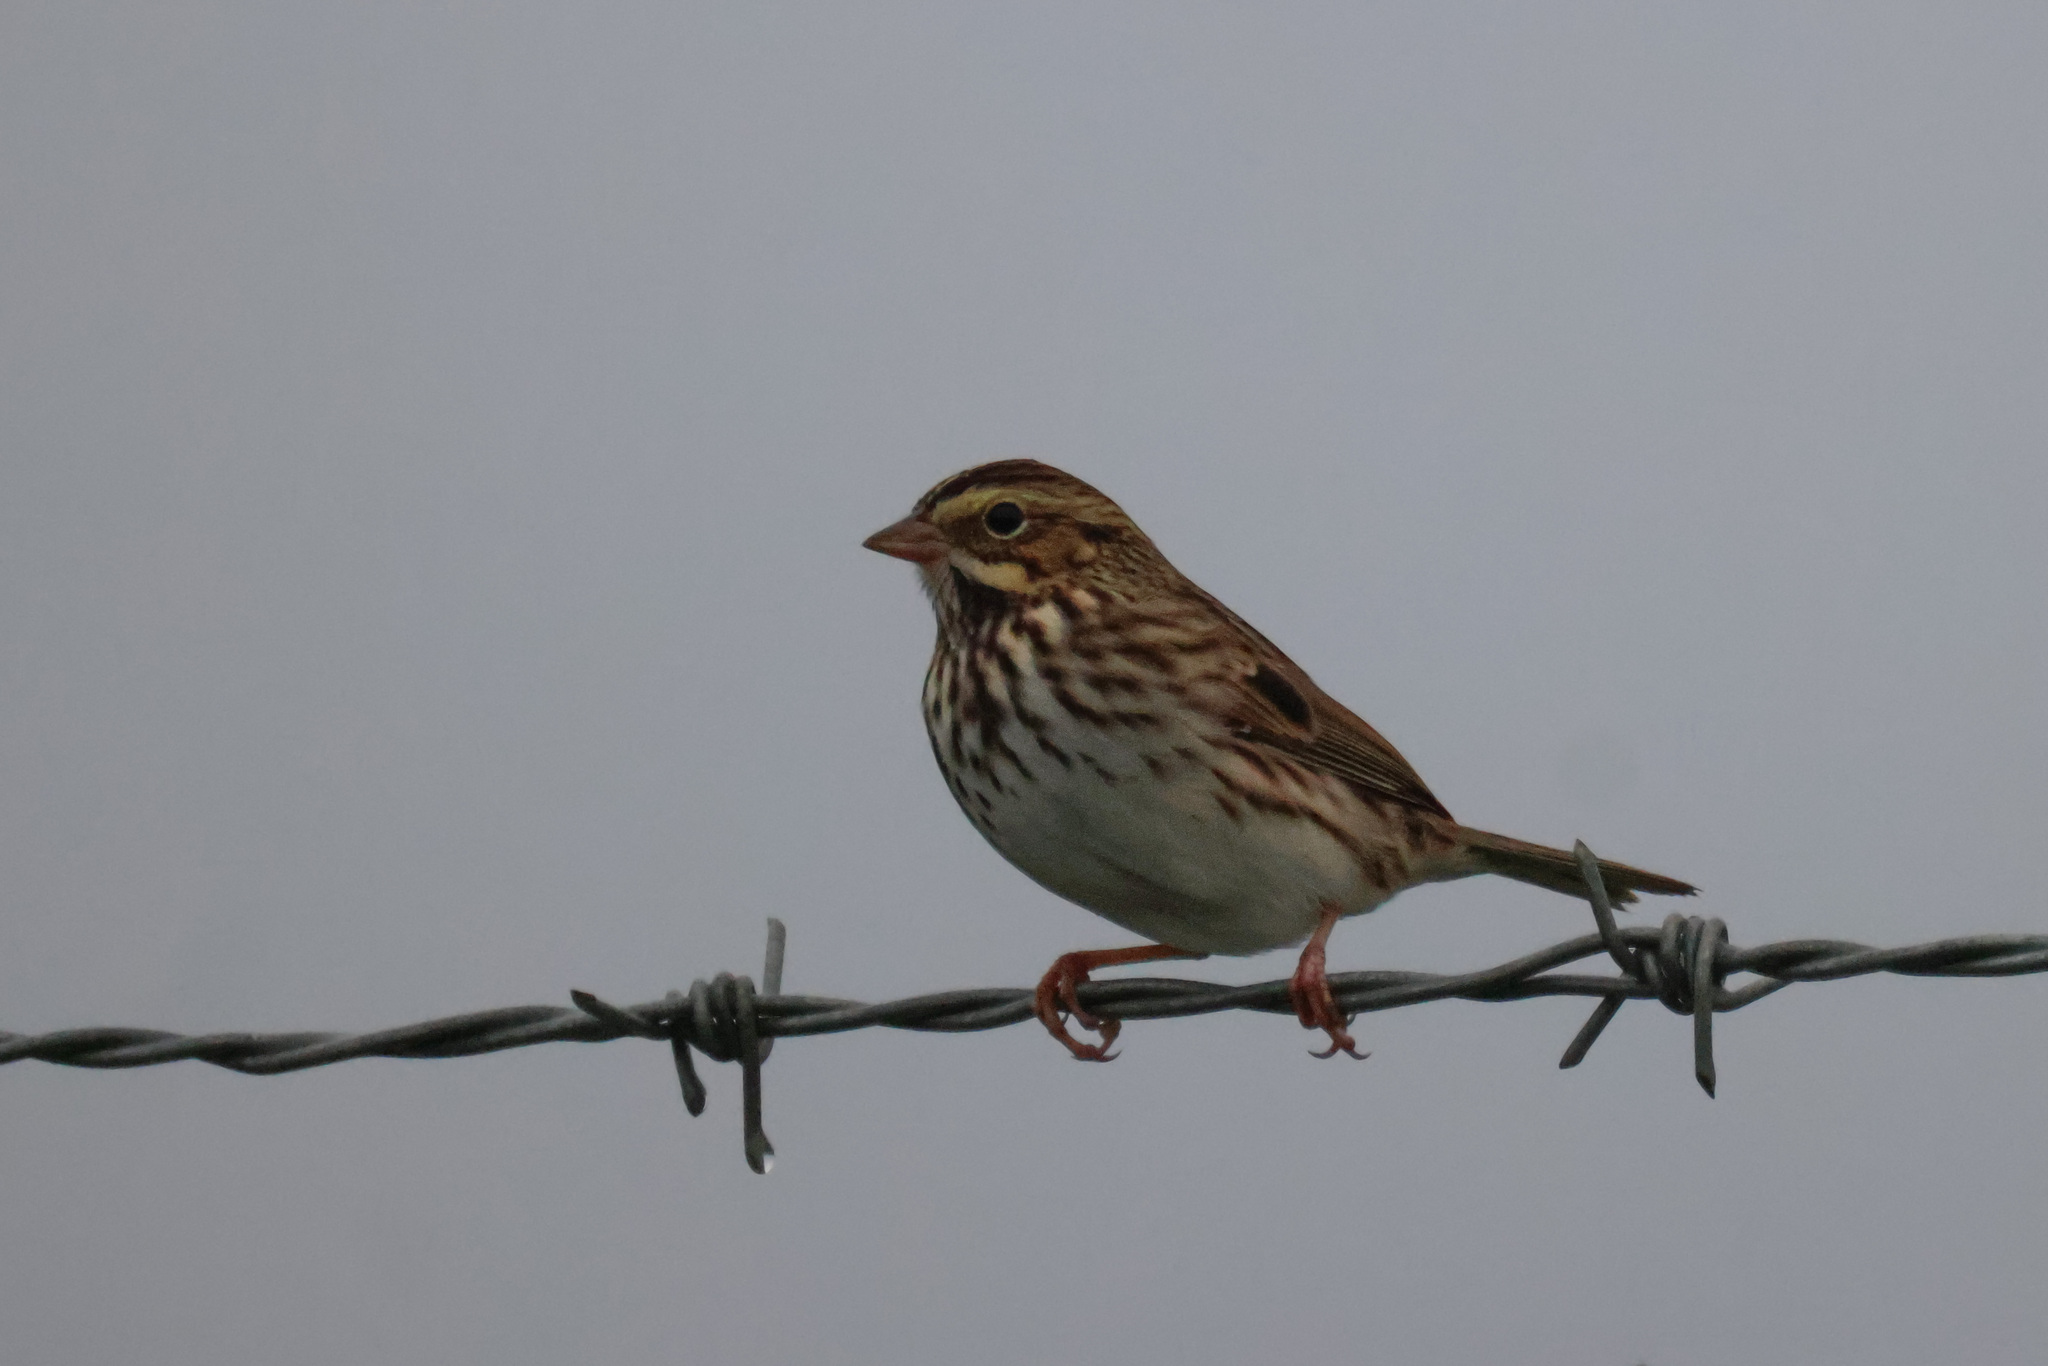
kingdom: Animalia
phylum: Chordata
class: Aves
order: Passeriformes
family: Passerellidae
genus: Passerculus
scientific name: Passerculus sandwichensis
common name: Savannah sparrow
